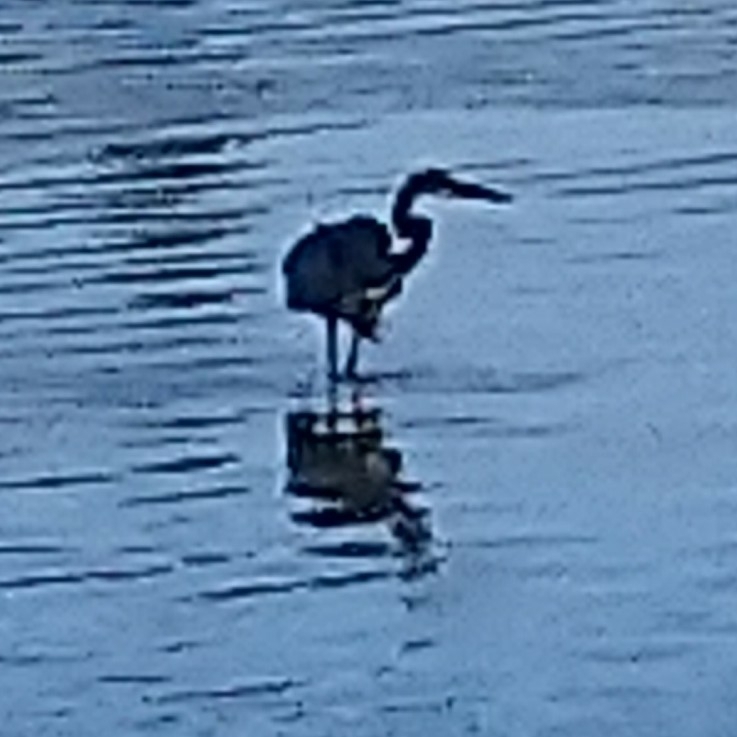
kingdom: Animalia
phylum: Chordata
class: Aves
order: Pelecaniformes
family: Ardeidae
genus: Ardea
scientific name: Ardea goliath
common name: Goliath heron
